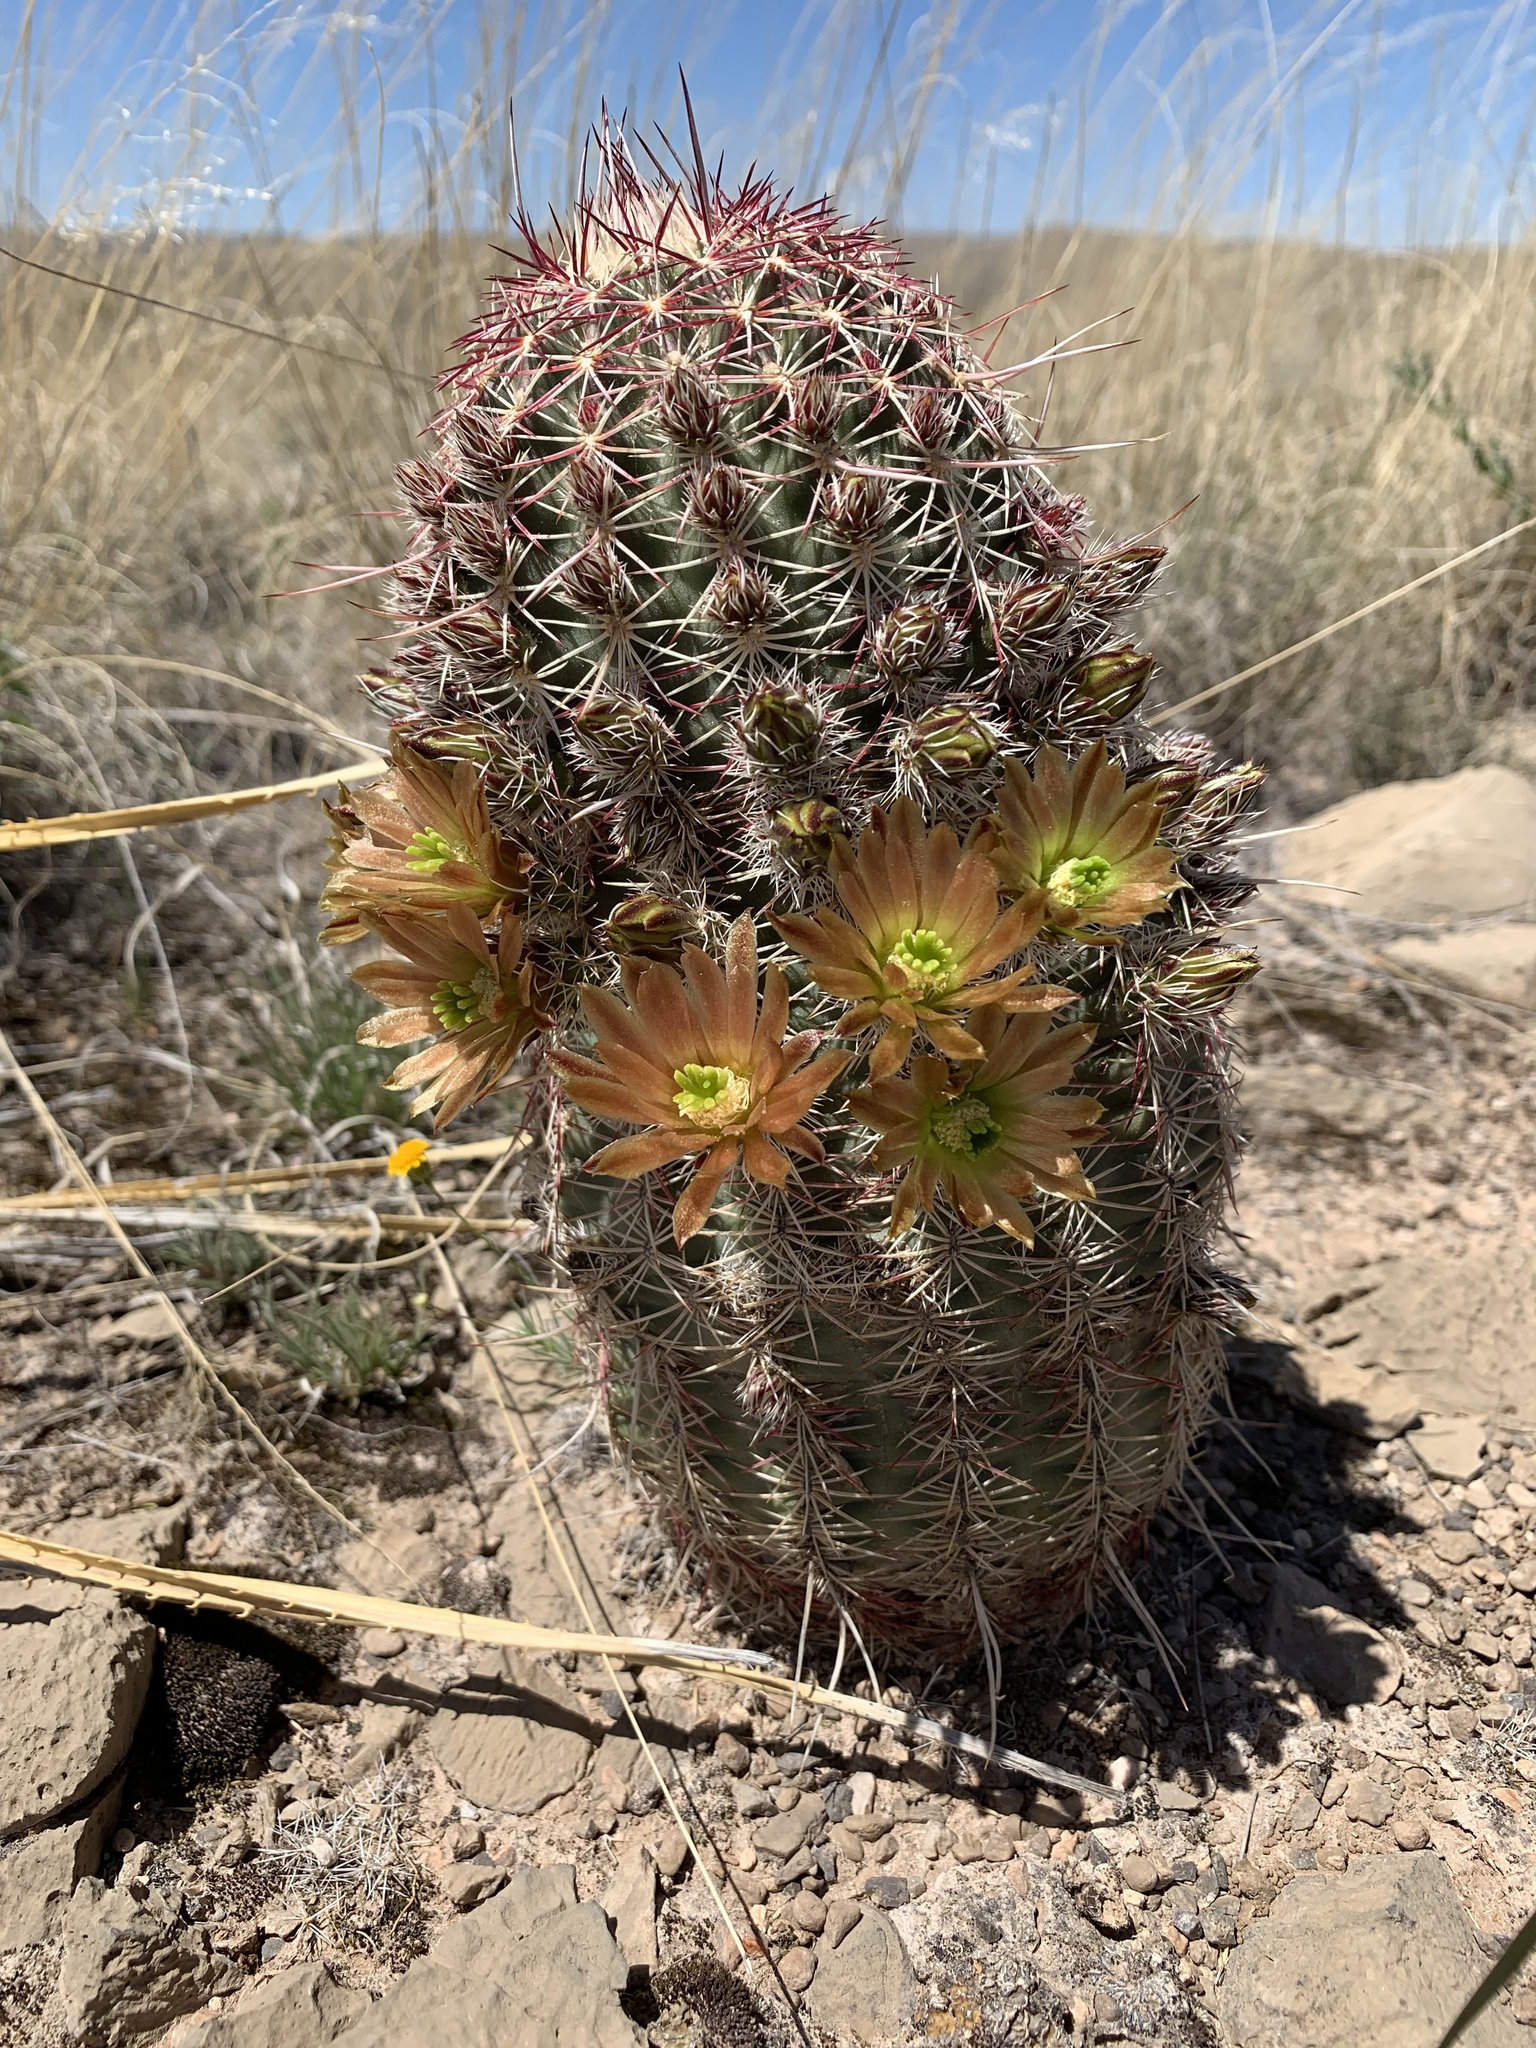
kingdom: Plantae
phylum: Tracheophyta
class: Magnoliopsida
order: Caryophyllales
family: Cactaceae
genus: Echinocereus
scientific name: Echinocereus viridiflorus
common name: Nylon hedgehog cactus
